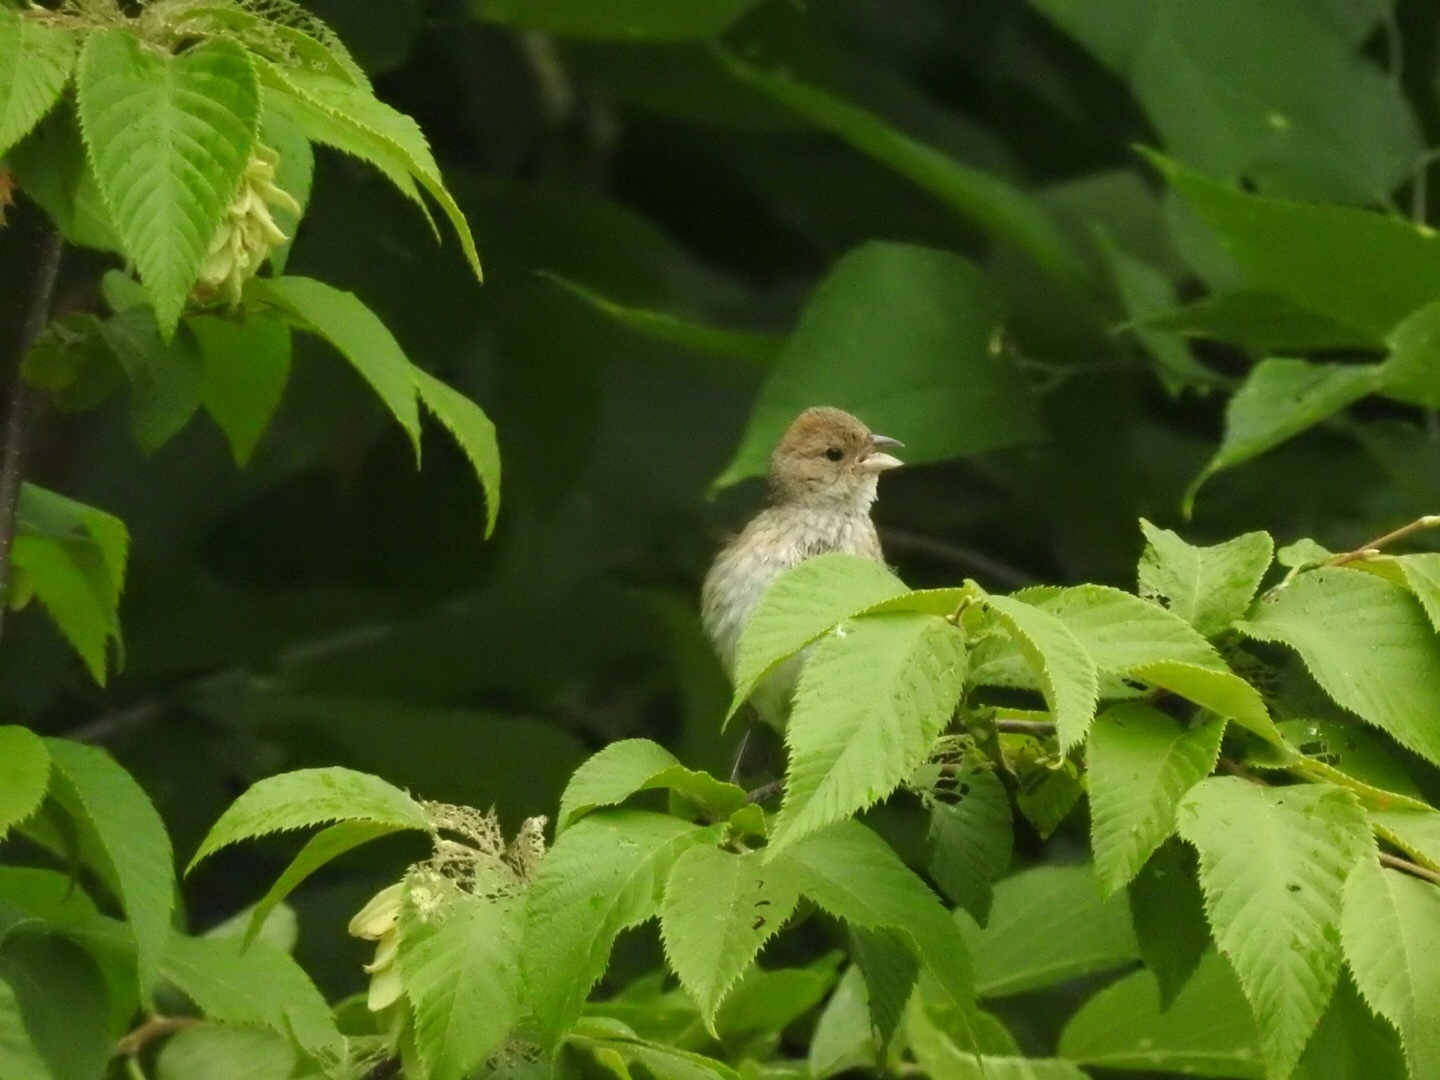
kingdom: Animalia
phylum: Chordata
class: Aves
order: Passeriformes
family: Cardinalidae
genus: Passerina
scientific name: Passerina cyanea
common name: Indigo bunting
